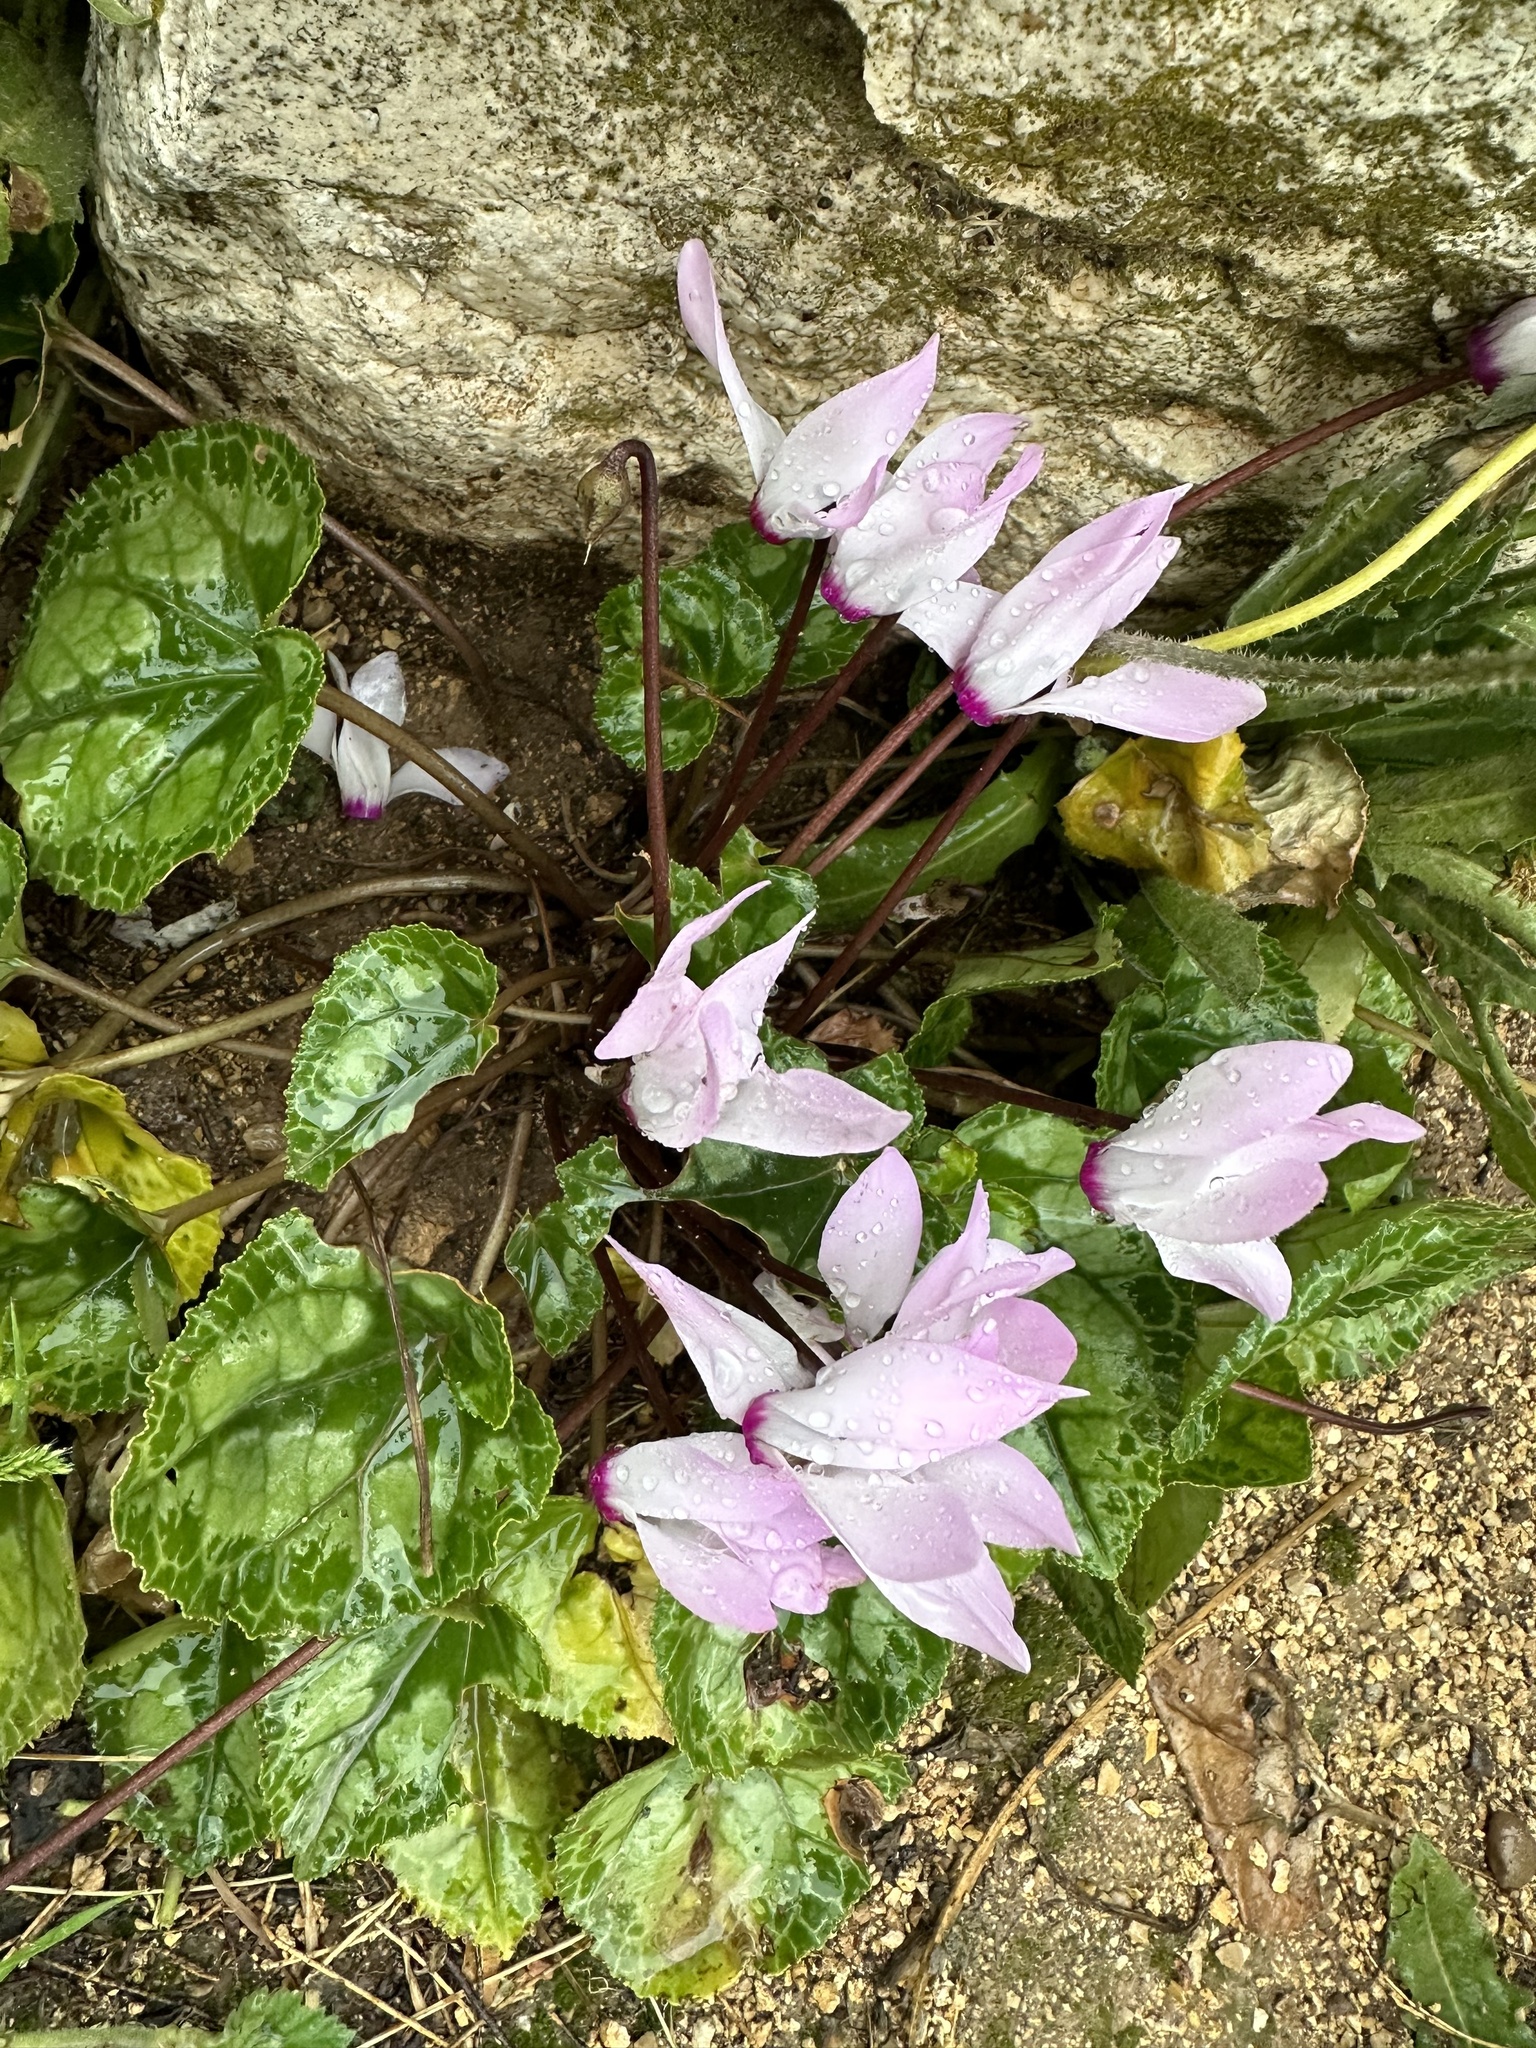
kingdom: Plantae
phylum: Tracheophyta
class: Magnoliopsida
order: Ericales
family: Primulaceae
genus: Cyclamen
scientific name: Cyclamen persicum
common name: Florist's cyclamen
